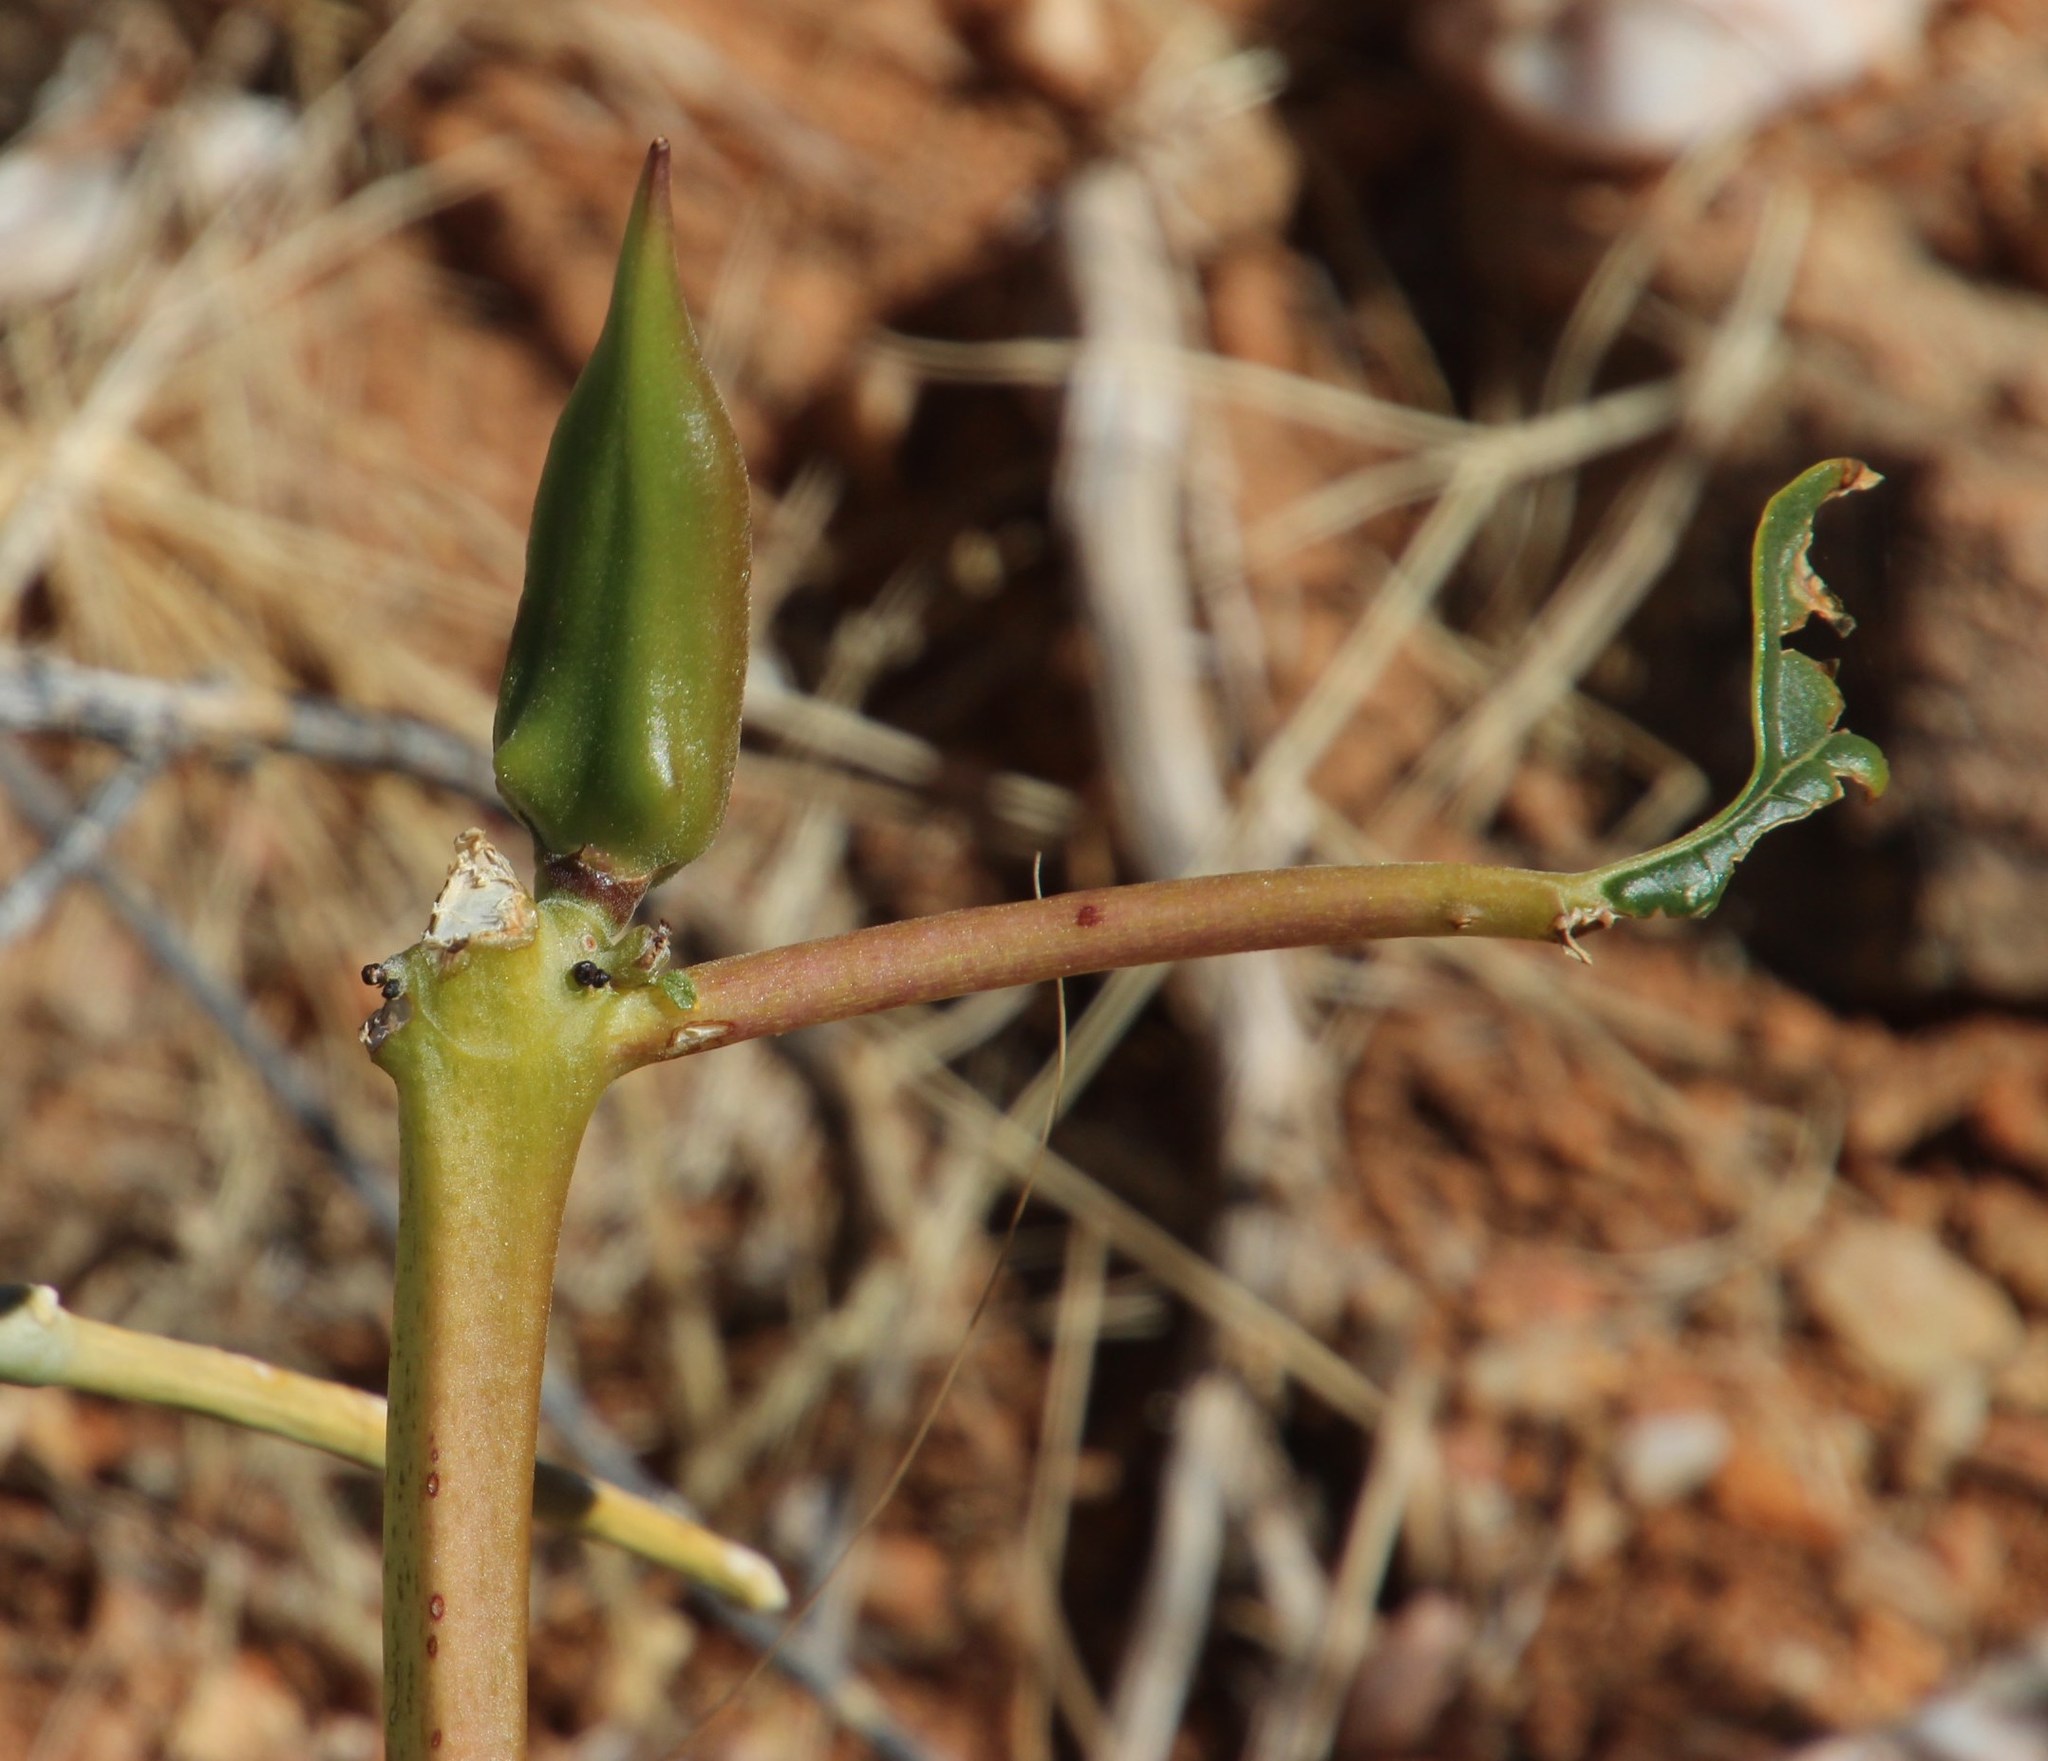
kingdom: Plantae
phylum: Tracheophyta
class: Magnoliopsida
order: Lamiales
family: Pedaliaceae
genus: Rogeria
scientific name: Rogeria longiflora
